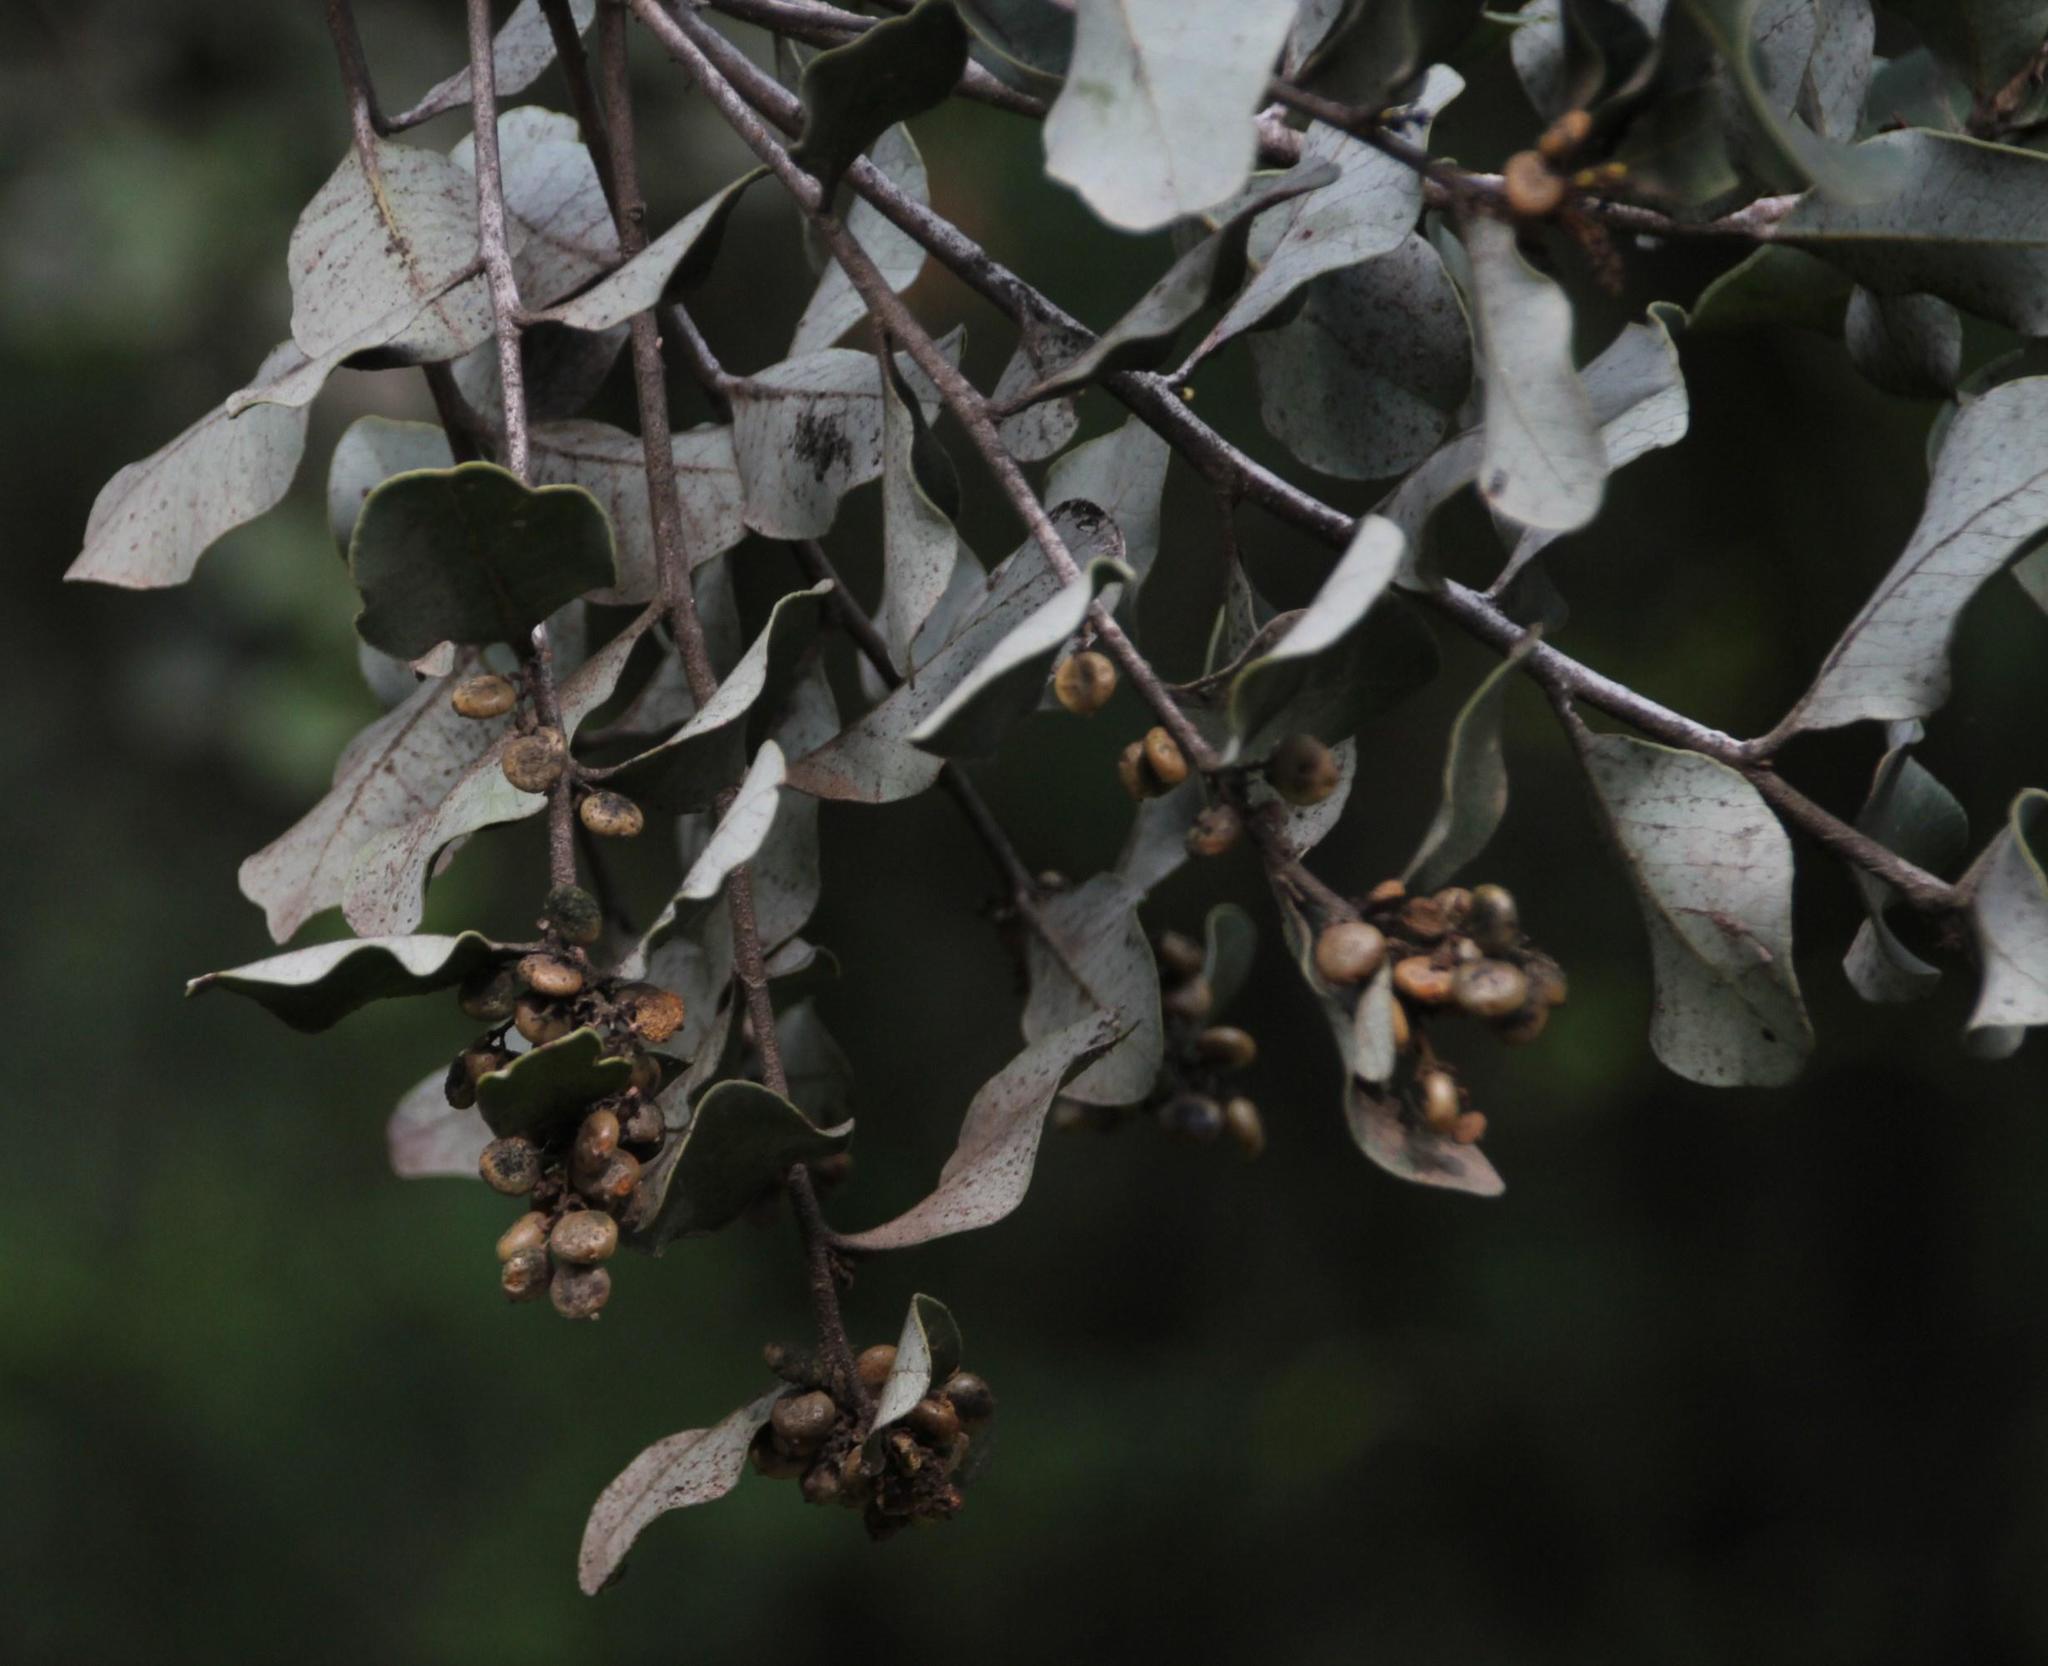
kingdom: Plantae
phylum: Tracheophyta
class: Magnoliopsida
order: Sapindales
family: Anacardiaceae
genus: Lithraea
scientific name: Lithraea caustica
